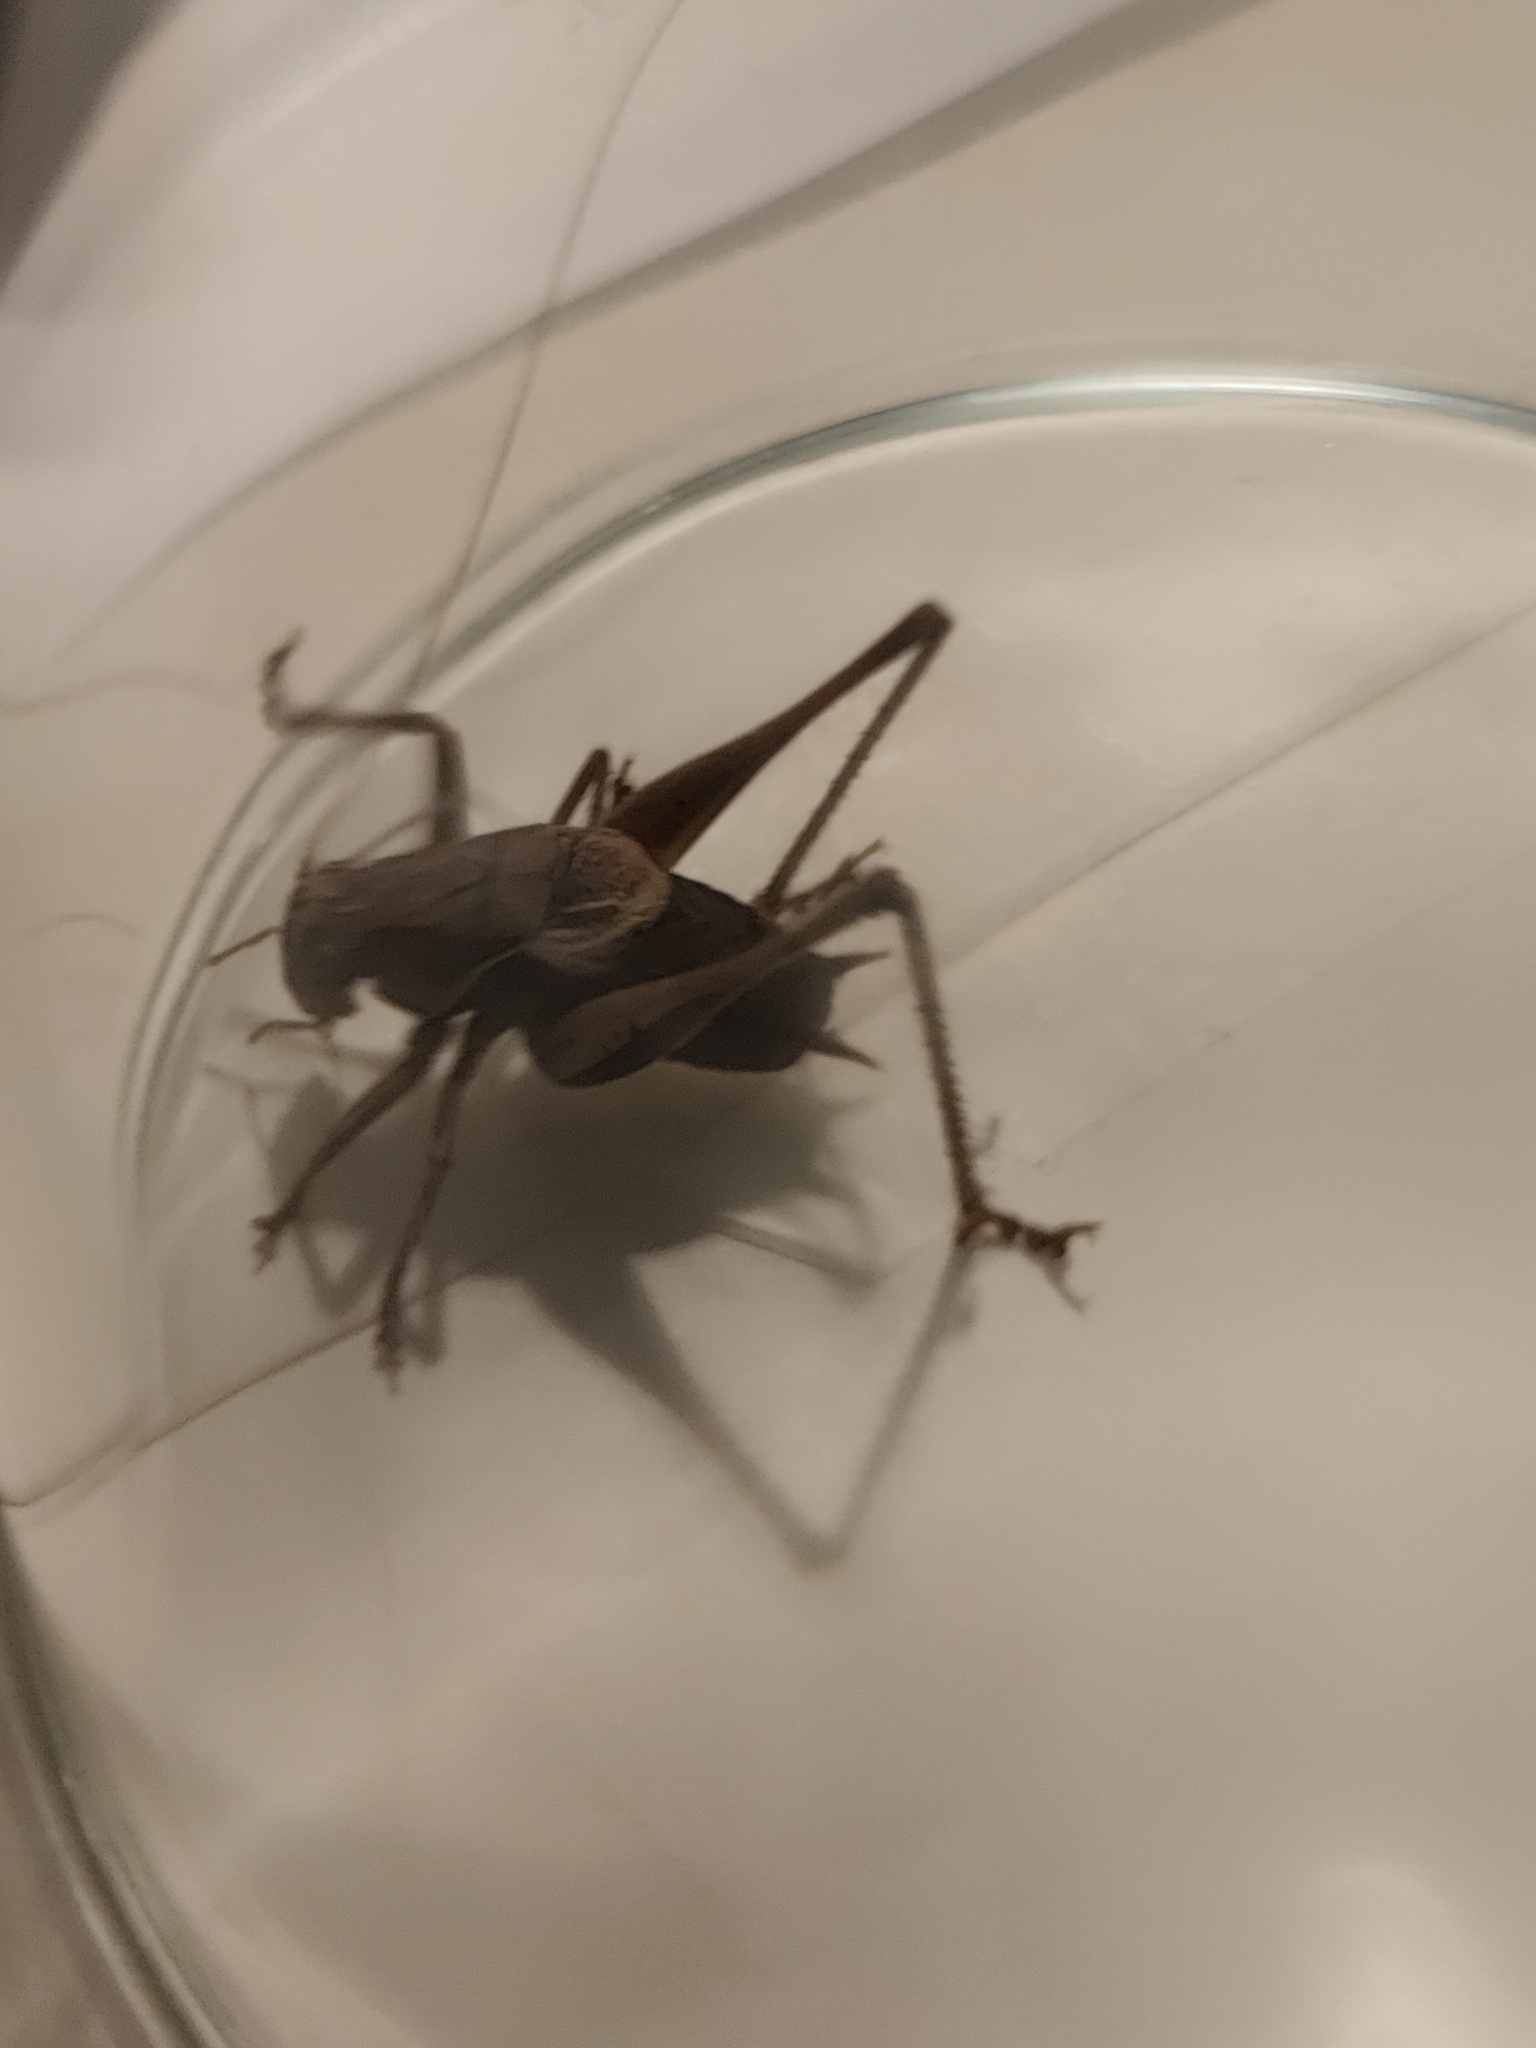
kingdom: Animalia
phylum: Arthropoda
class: Insecta
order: Orthoptera
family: Tettigoniidae
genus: Pholidoptera
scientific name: Pholidoptera griseoaptera
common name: Dark bush-cricket
